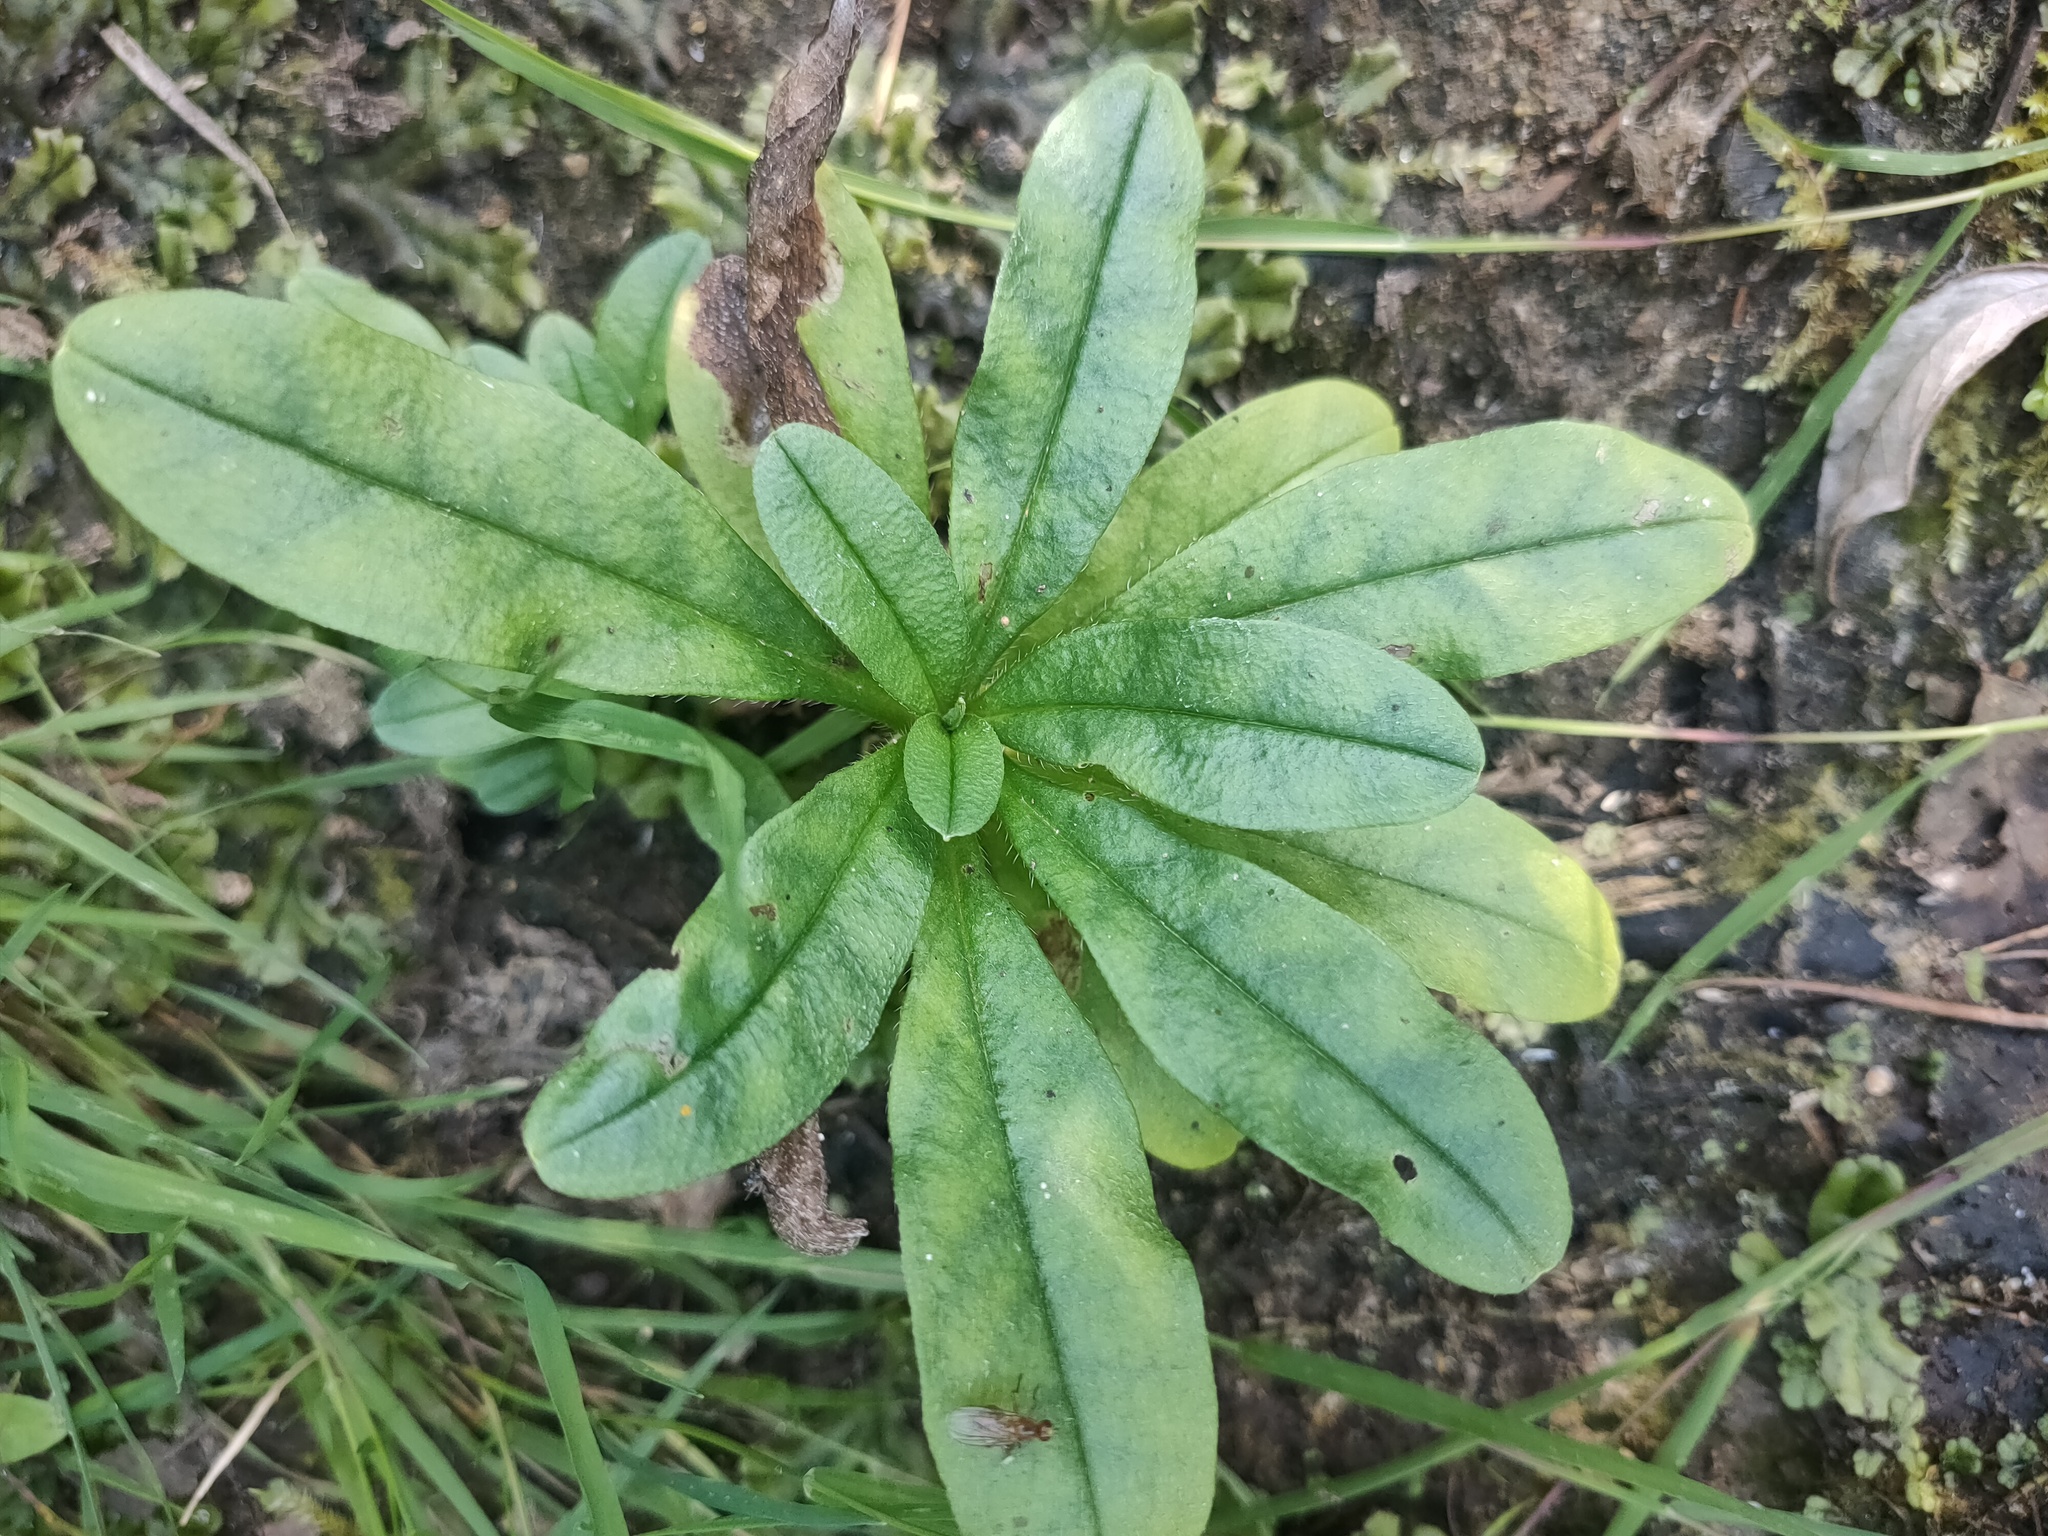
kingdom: Plantae
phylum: Tracheophyta
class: Magnoliopsida
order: Boraginales
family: Boraginaceae
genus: Myosotis
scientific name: Myosotis scorpioides
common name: Water forget-me-not
